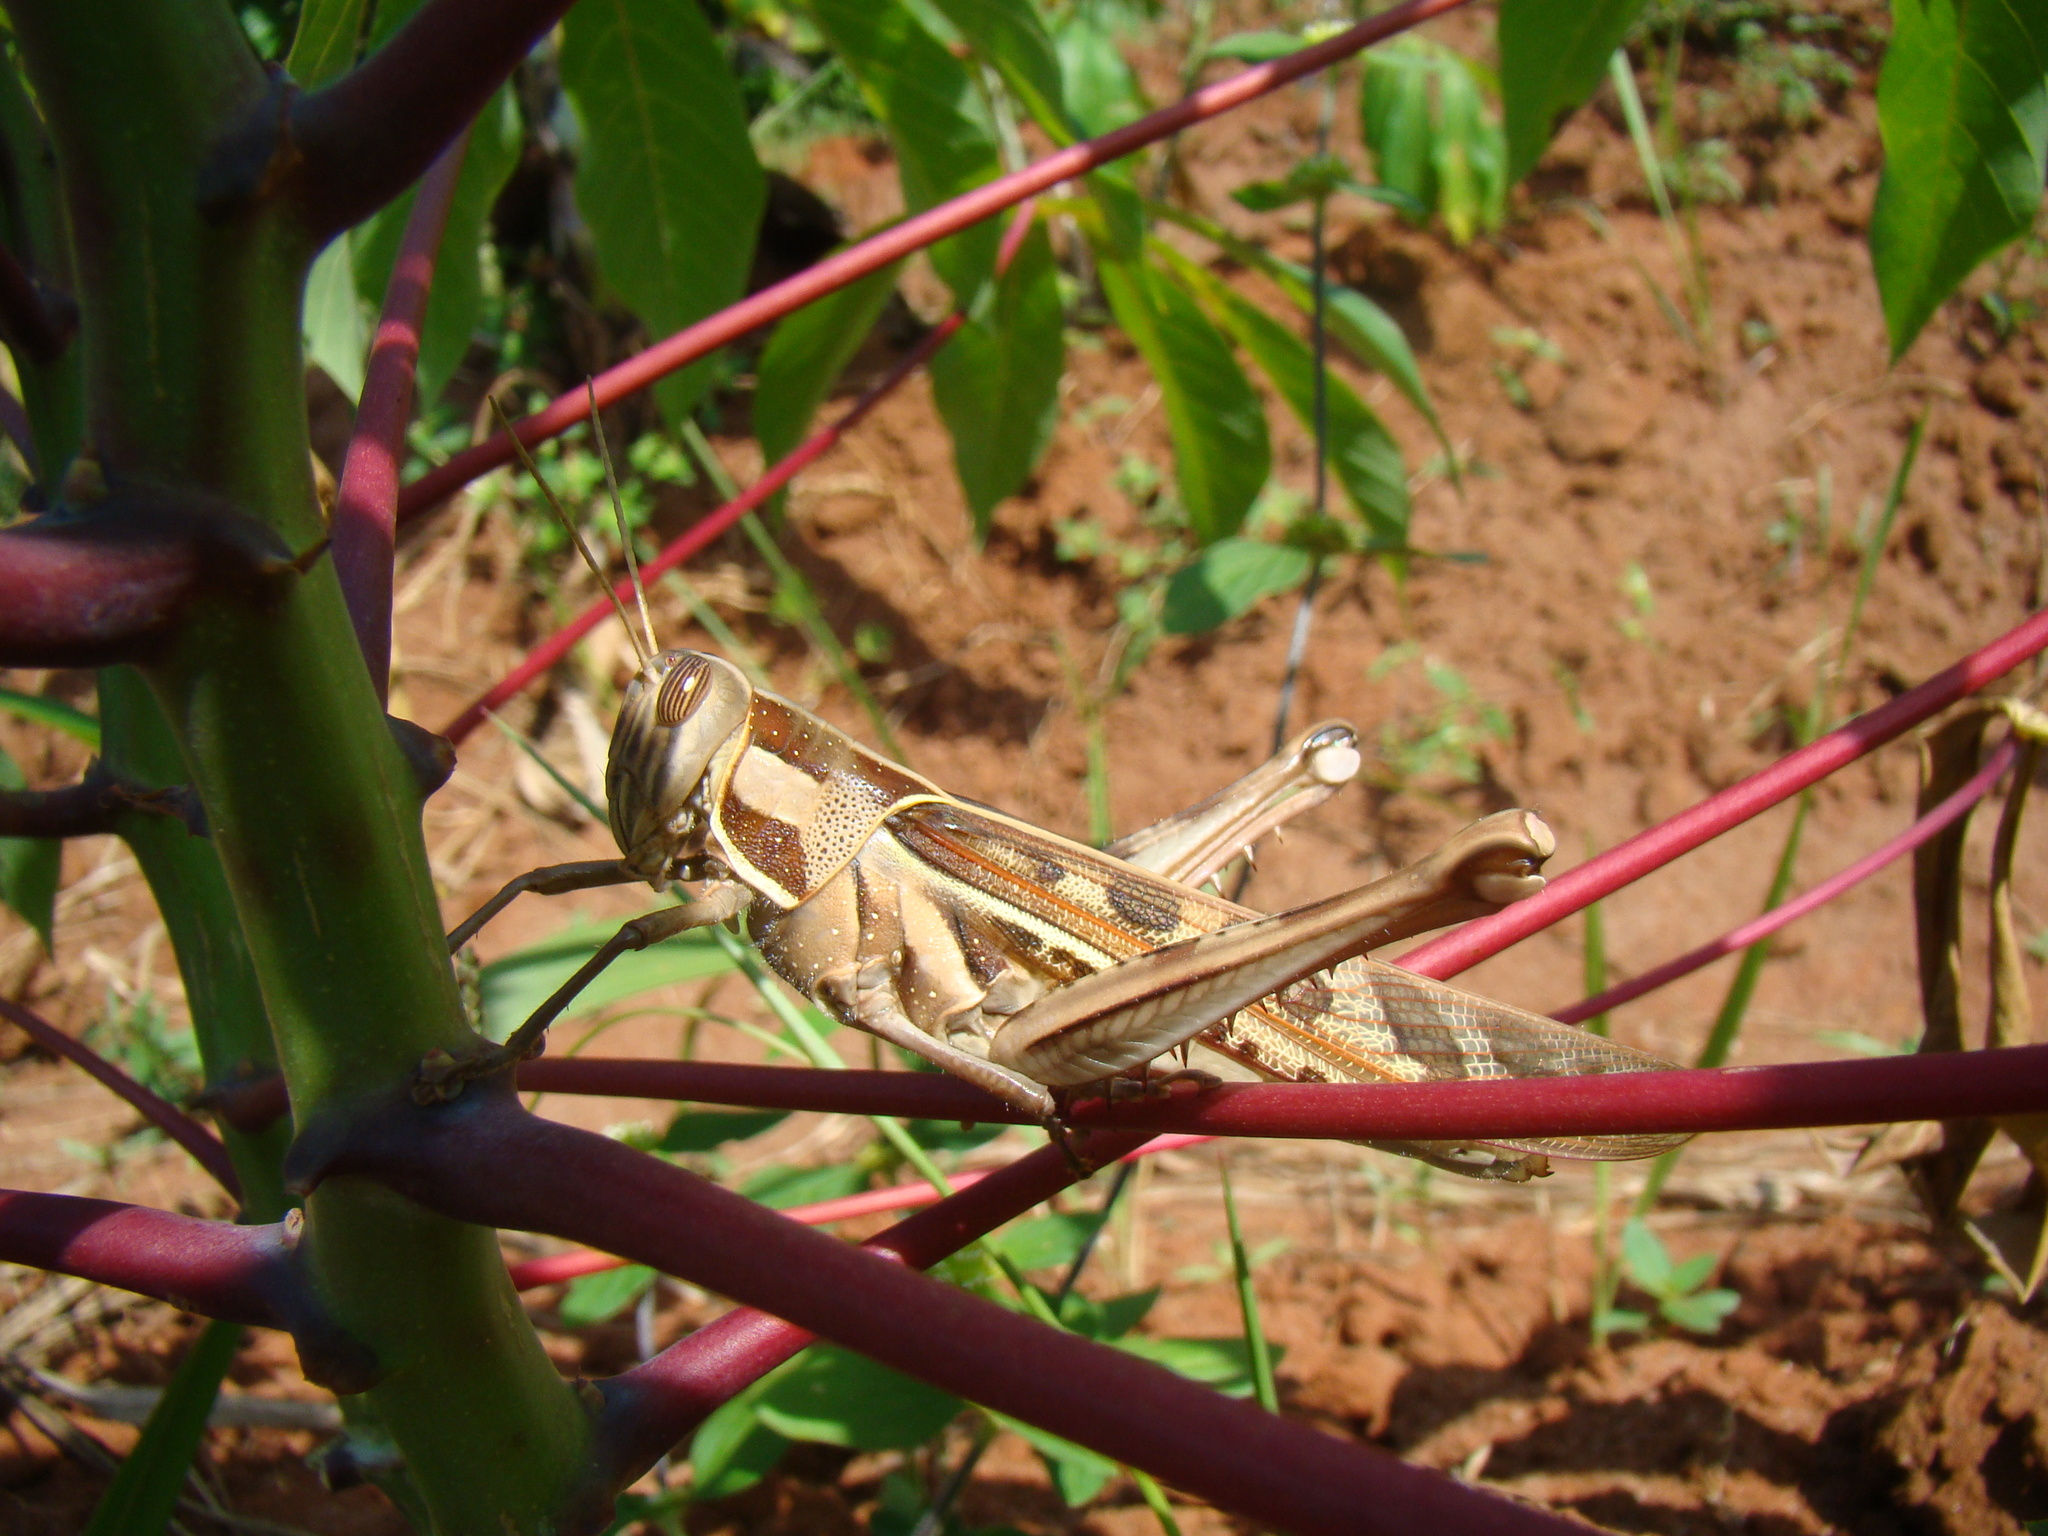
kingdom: Animalia
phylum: Arthropoda
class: Insecta
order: Orthoptera
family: Acrididae
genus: Cyrtacanthacris
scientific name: Cyrtacanthacris tatarica
